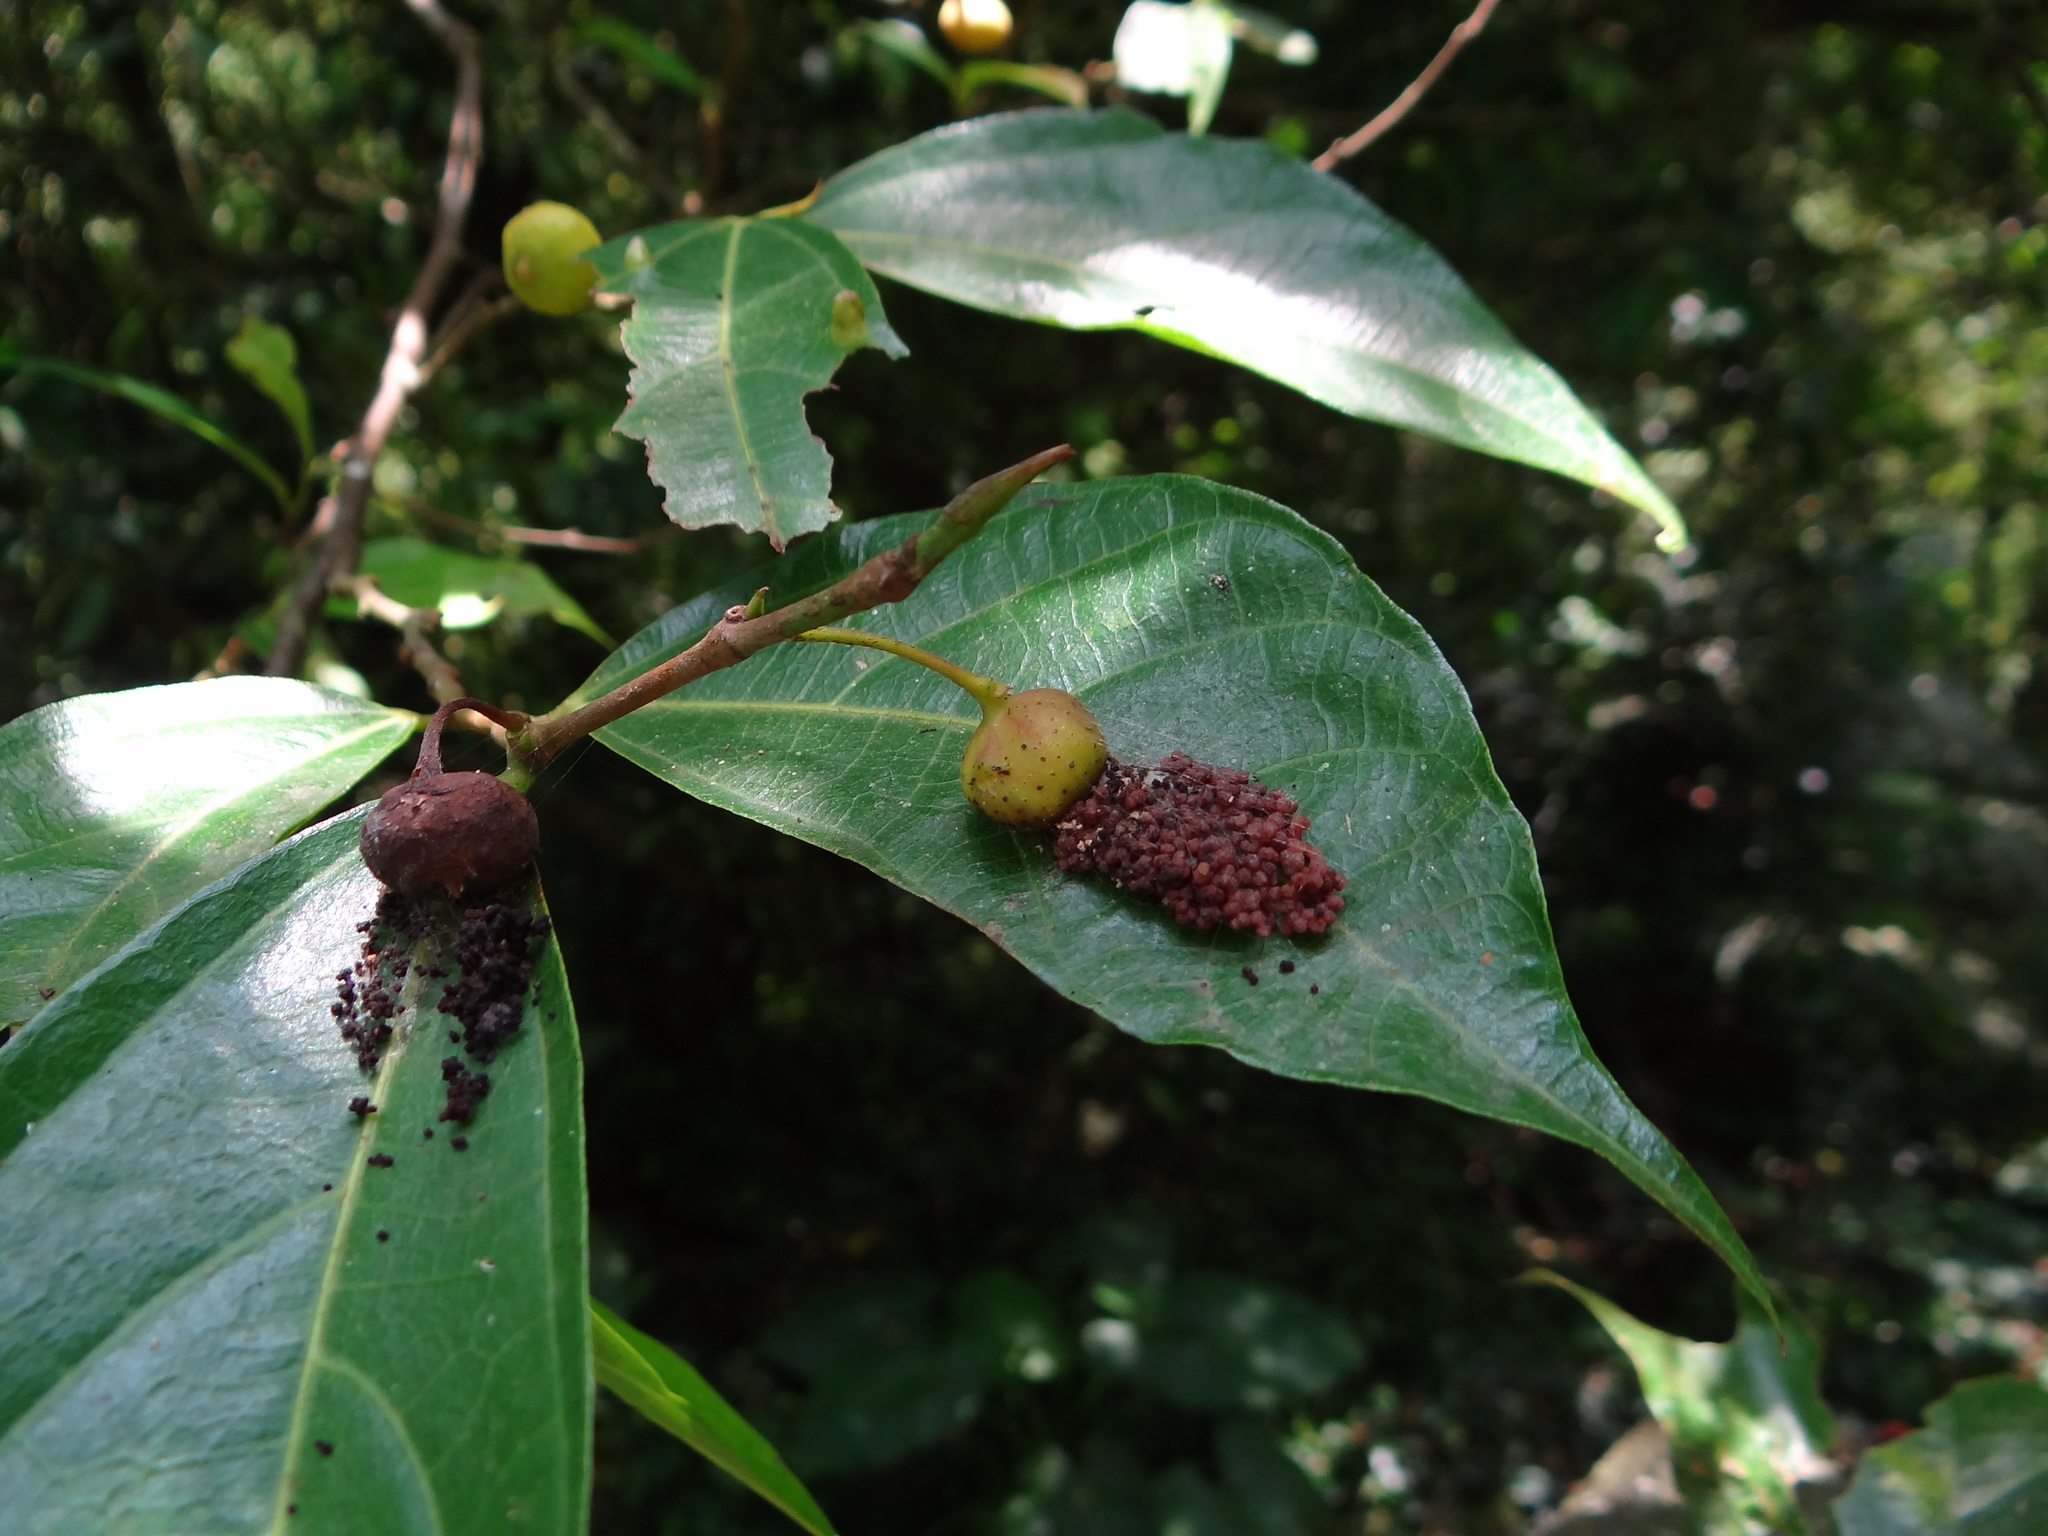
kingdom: Plantae
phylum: Tracheophyta
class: Magnoliopsida
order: Rosales
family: Moraceae
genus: Ficus
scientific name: Ficus ampelos
